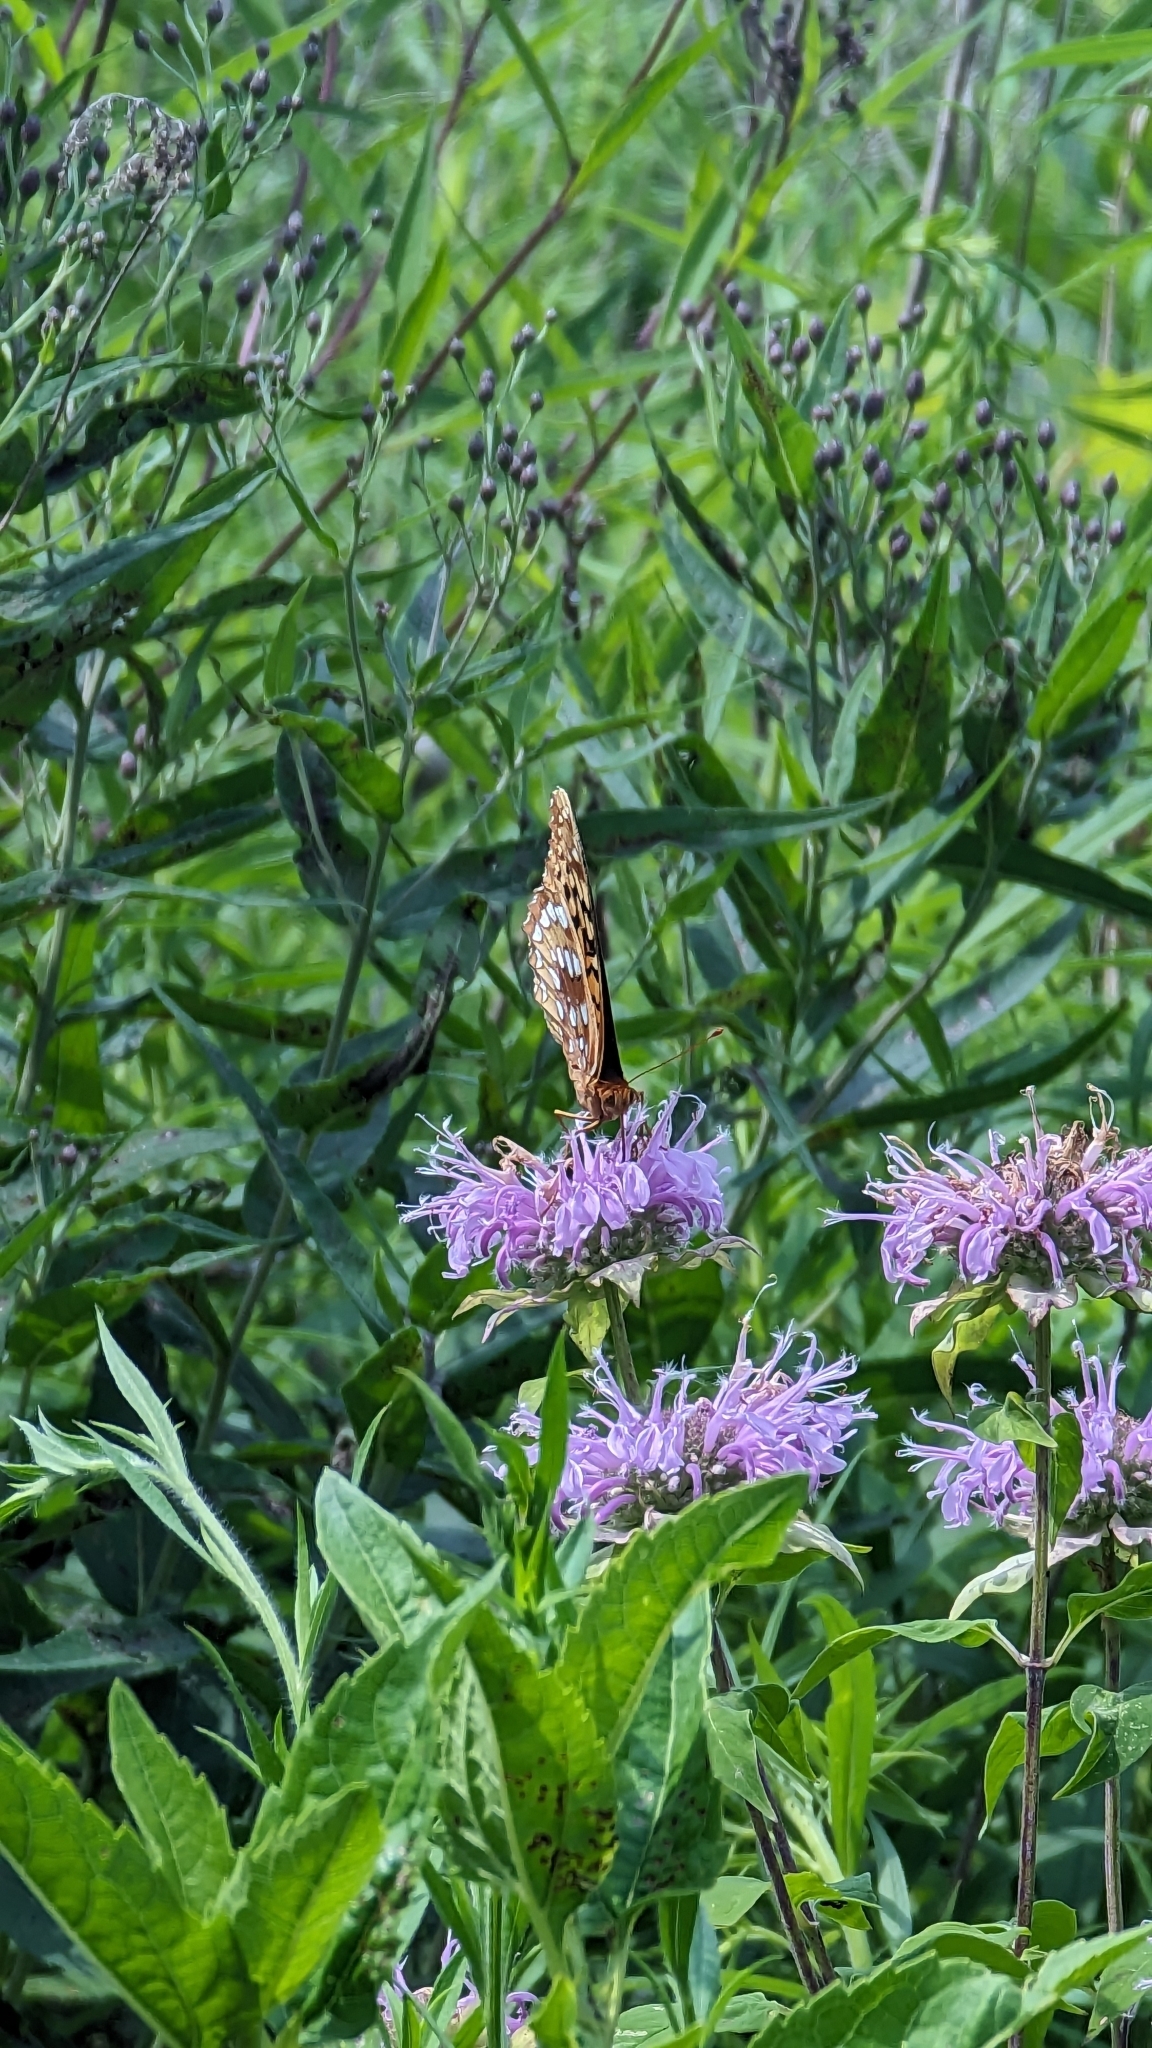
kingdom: Animalia
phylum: Arthropoda
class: Insecta
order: Lepidoptera
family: Nymphalidae
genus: Speyeria
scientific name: Speyeria cybele
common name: Great spangled fritillary
